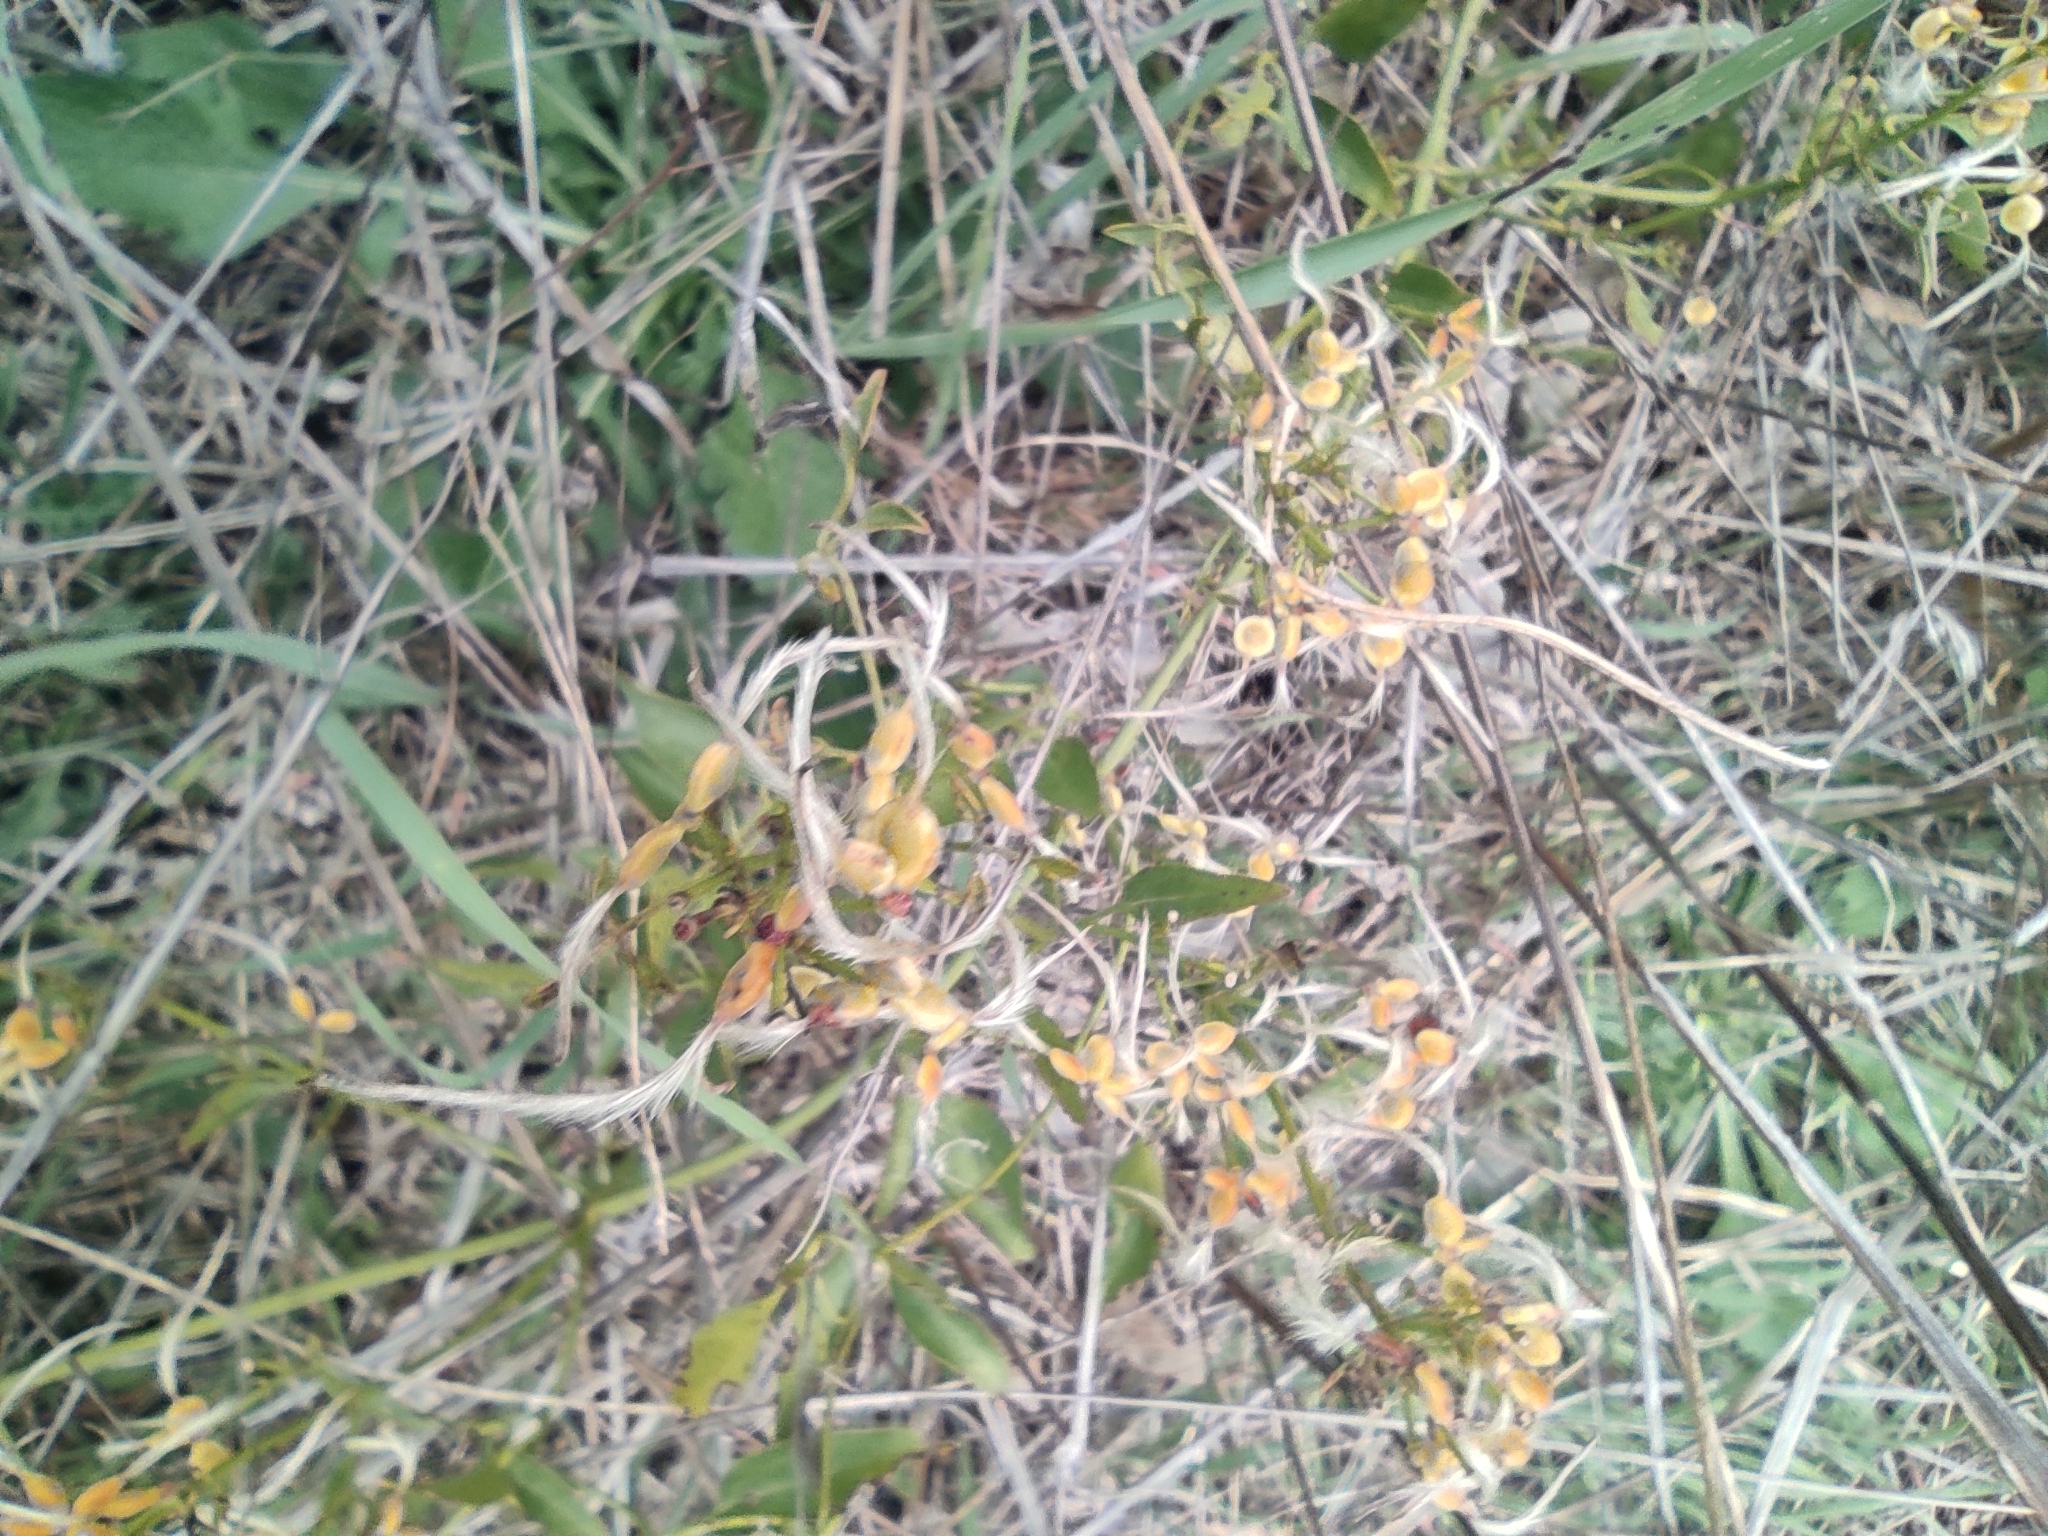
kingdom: Plantae
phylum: Tracheophyta
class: Magnoliopsida
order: Ranunculales
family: Ranunculaceae
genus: Clematis
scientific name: Clematis flammula
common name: Virgin's-bower
